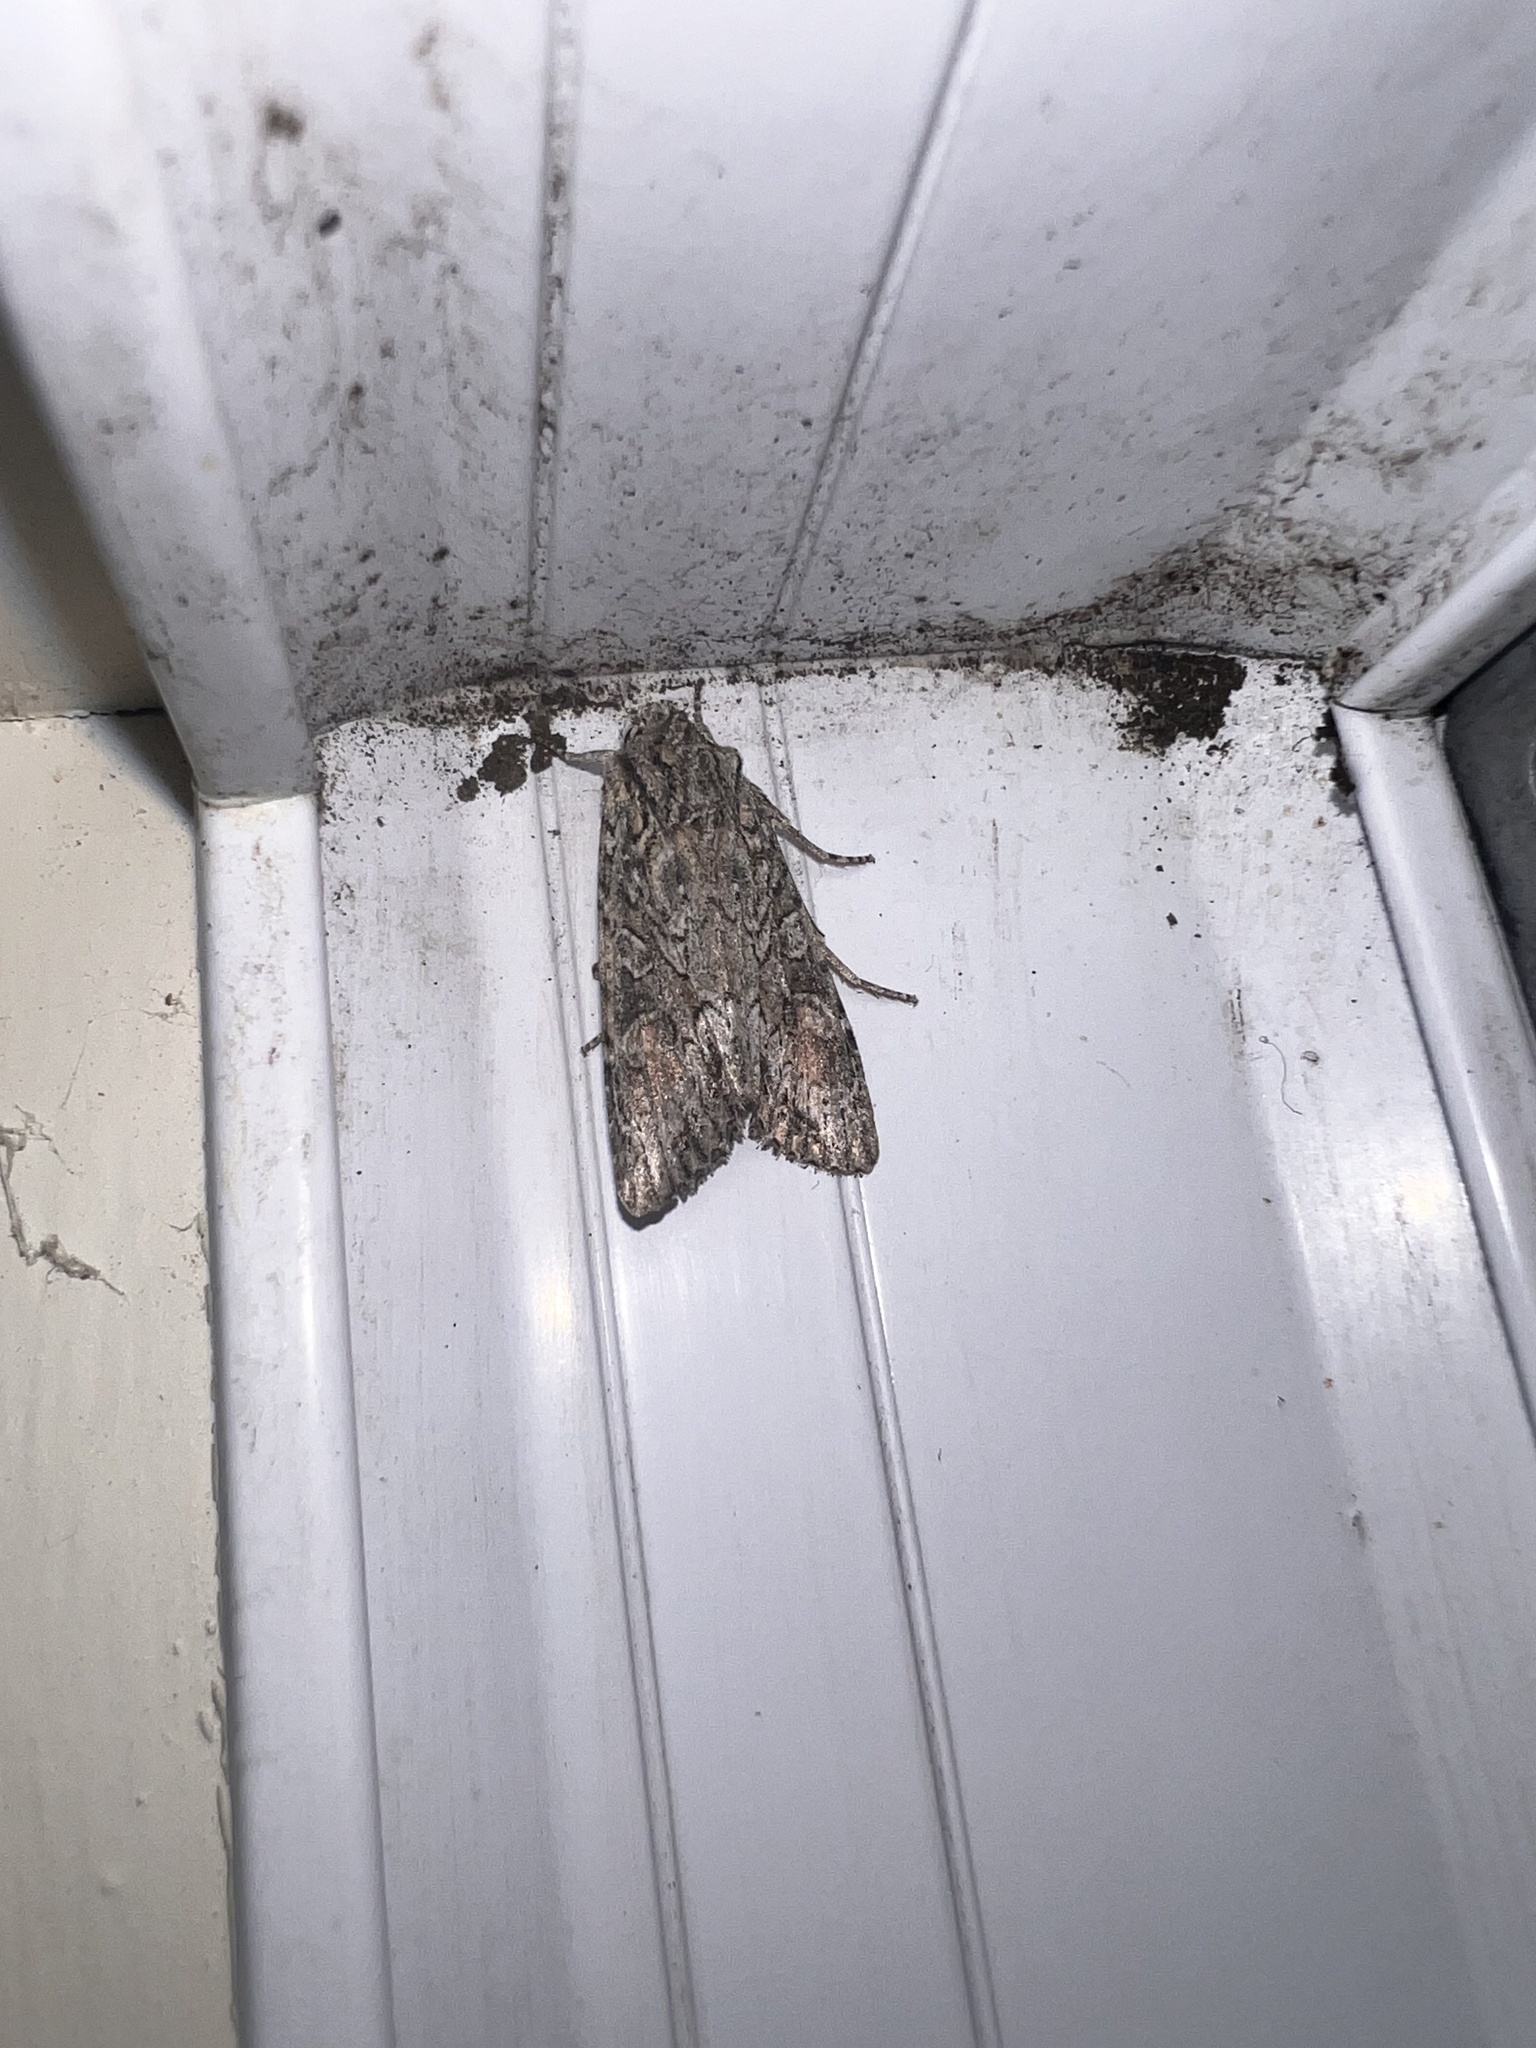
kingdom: Animalia
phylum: Arthropoda
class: Insecta
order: Lepidoptera
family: Noctuidae
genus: Ichneutica
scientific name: Ichneutica mutans
